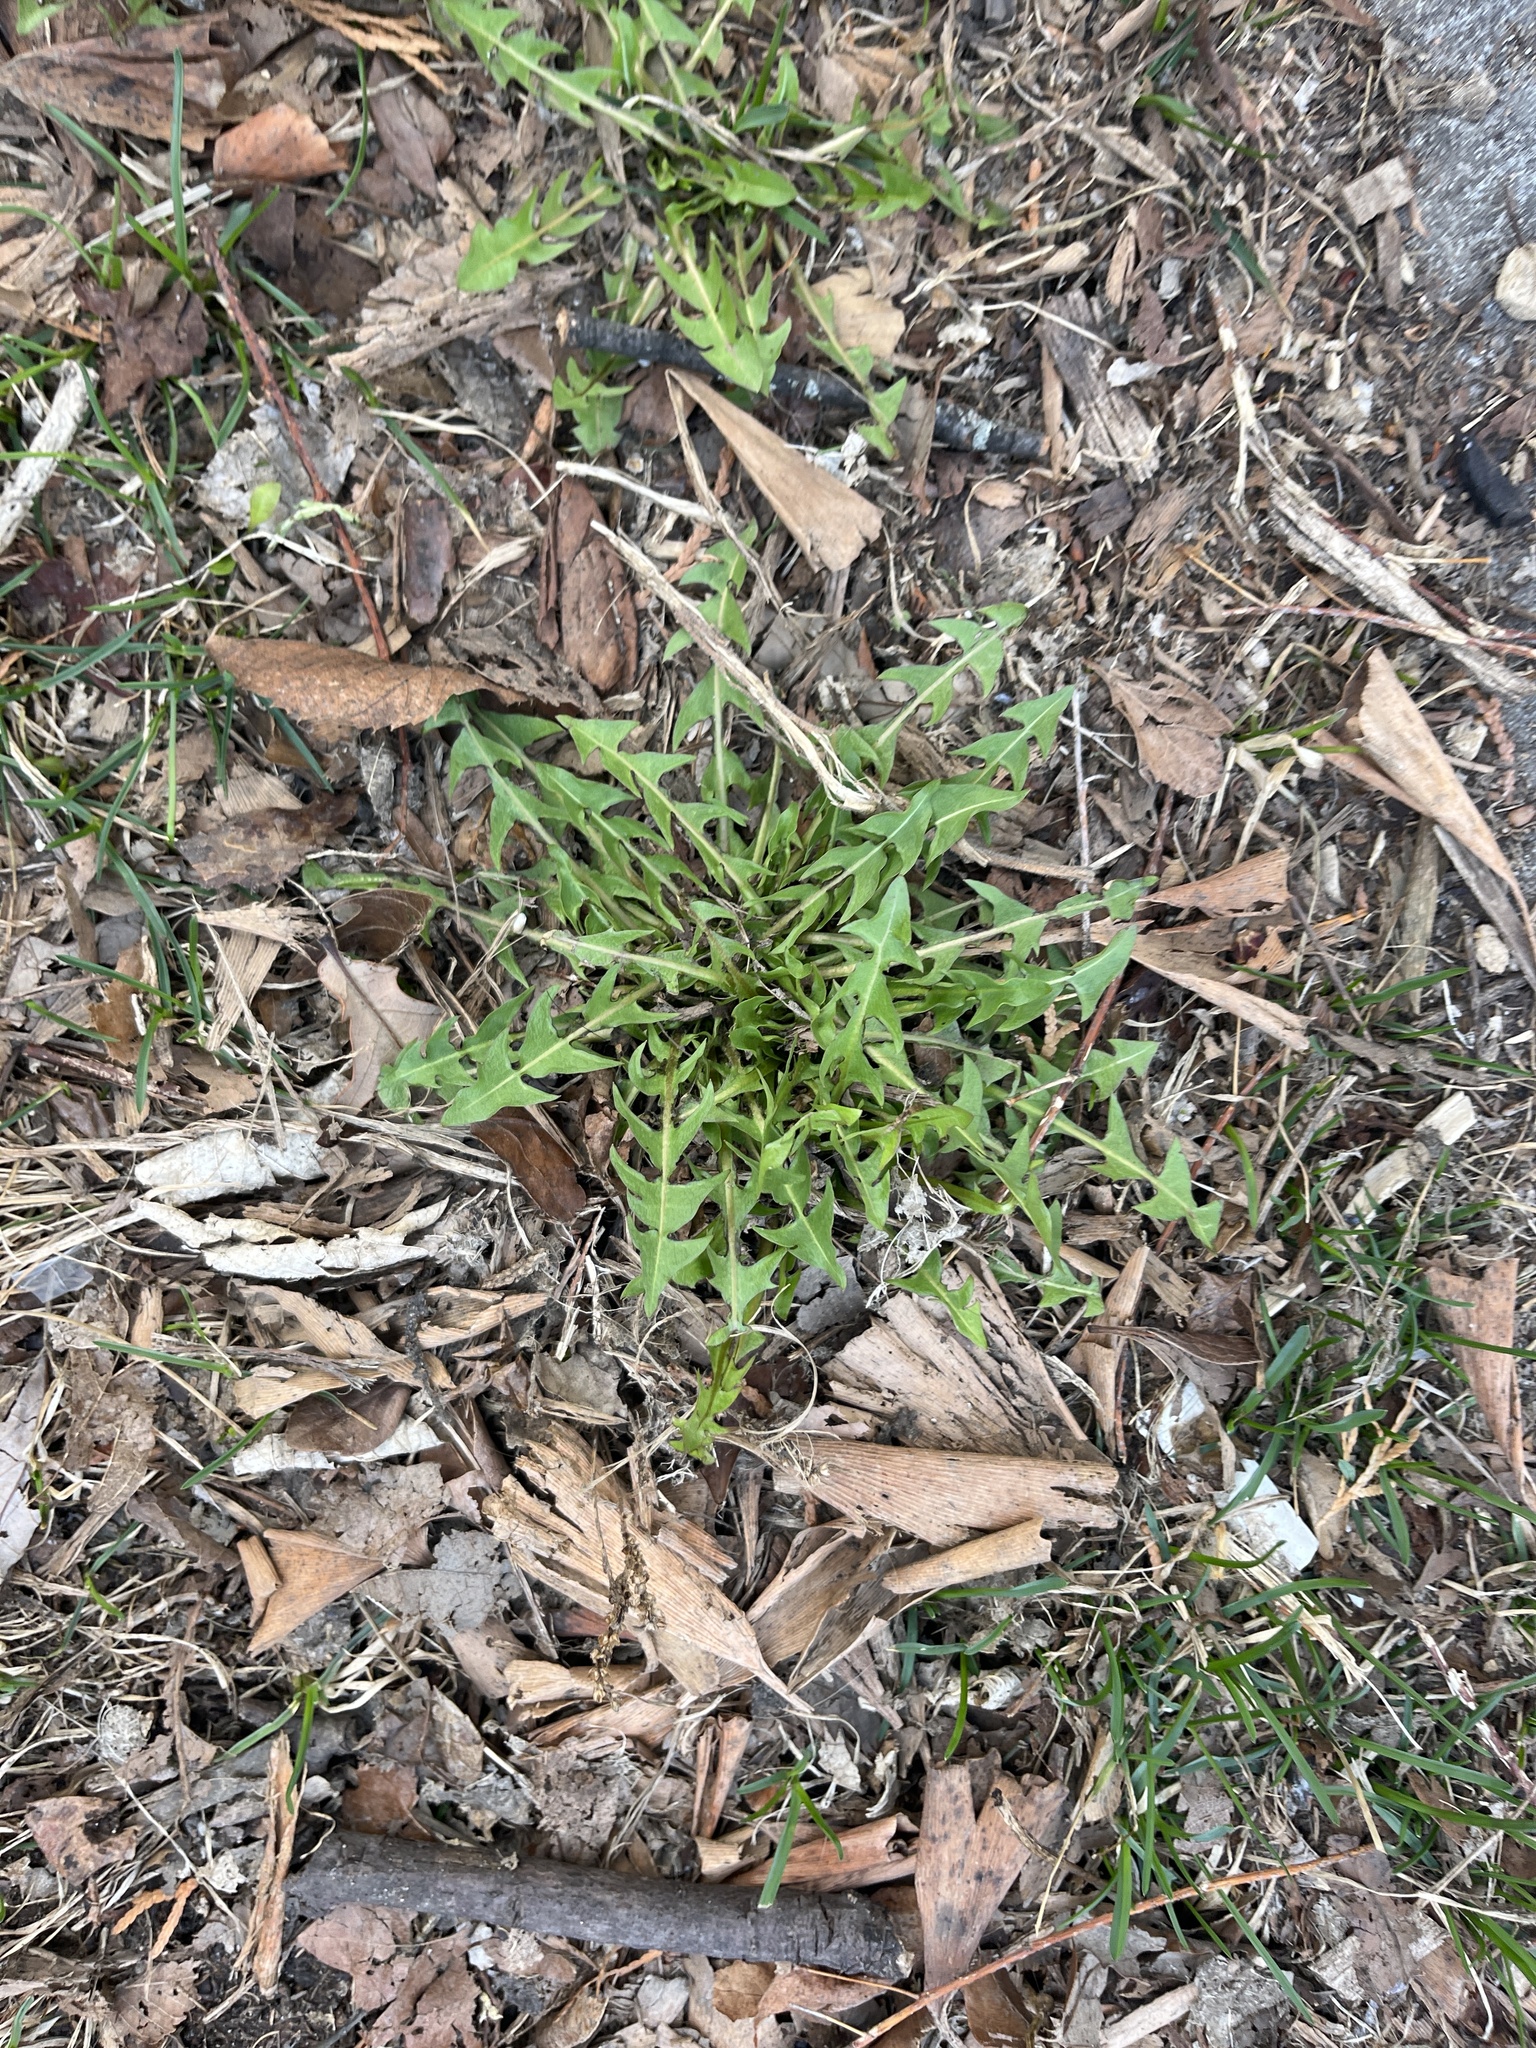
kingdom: Plantae
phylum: Tracheophyta
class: Magnoliopsida
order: Asterales
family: Asteraceae
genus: Taraxacum
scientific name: Taraxacum erythrospermum
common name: Rock dandelion
